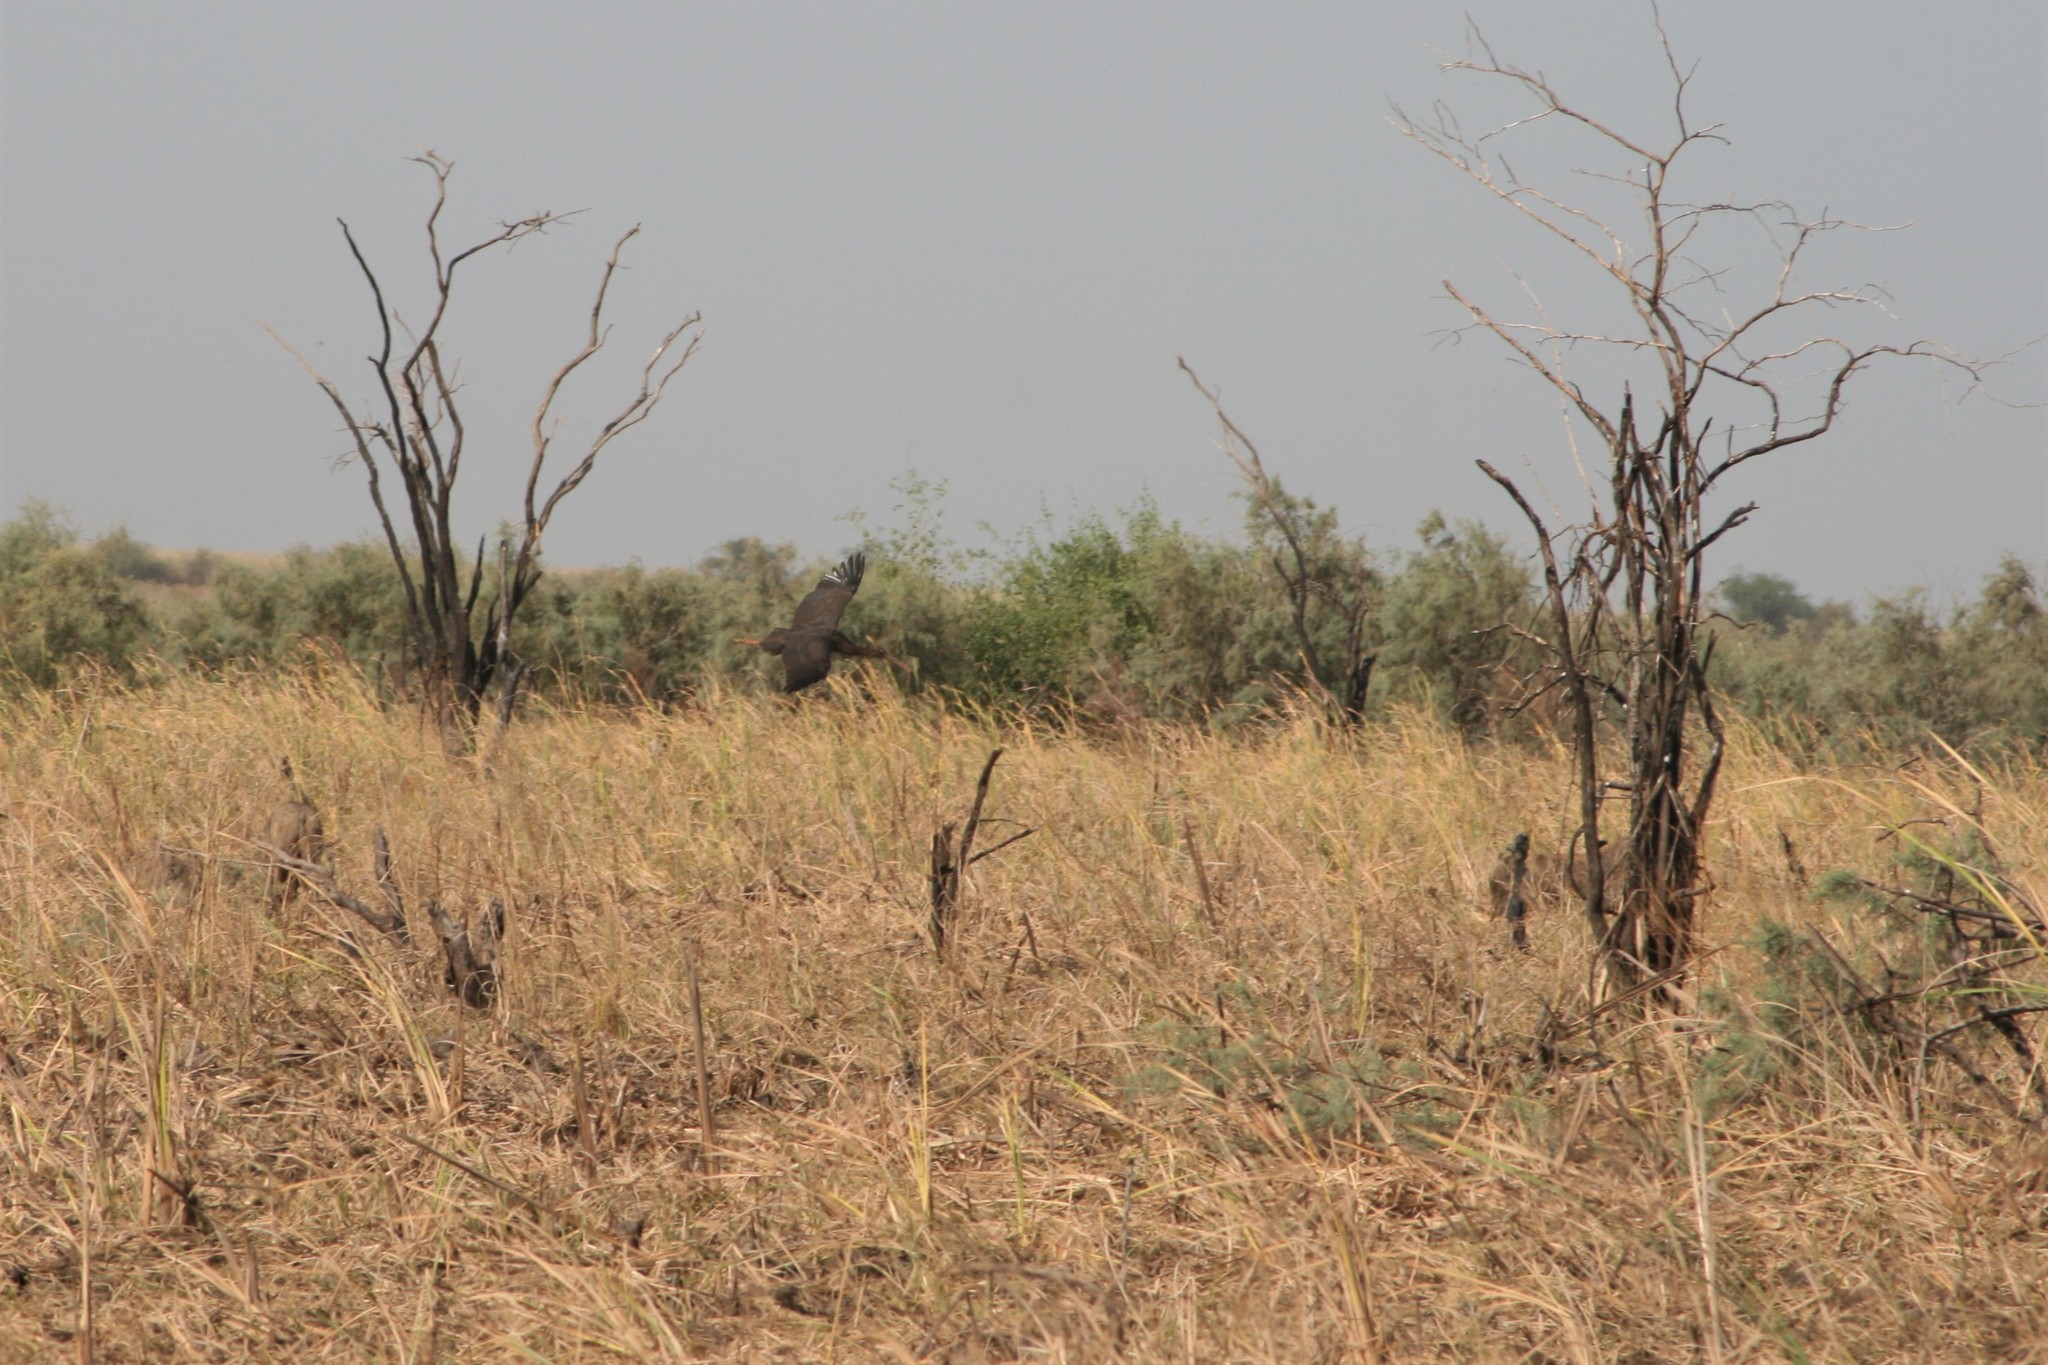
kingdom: Animalia
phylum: Chordata
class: Aves
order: Ciconiiformes
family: Ciconiidae
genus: Ciconia
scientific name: Ciconia nigra
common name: Black stork
